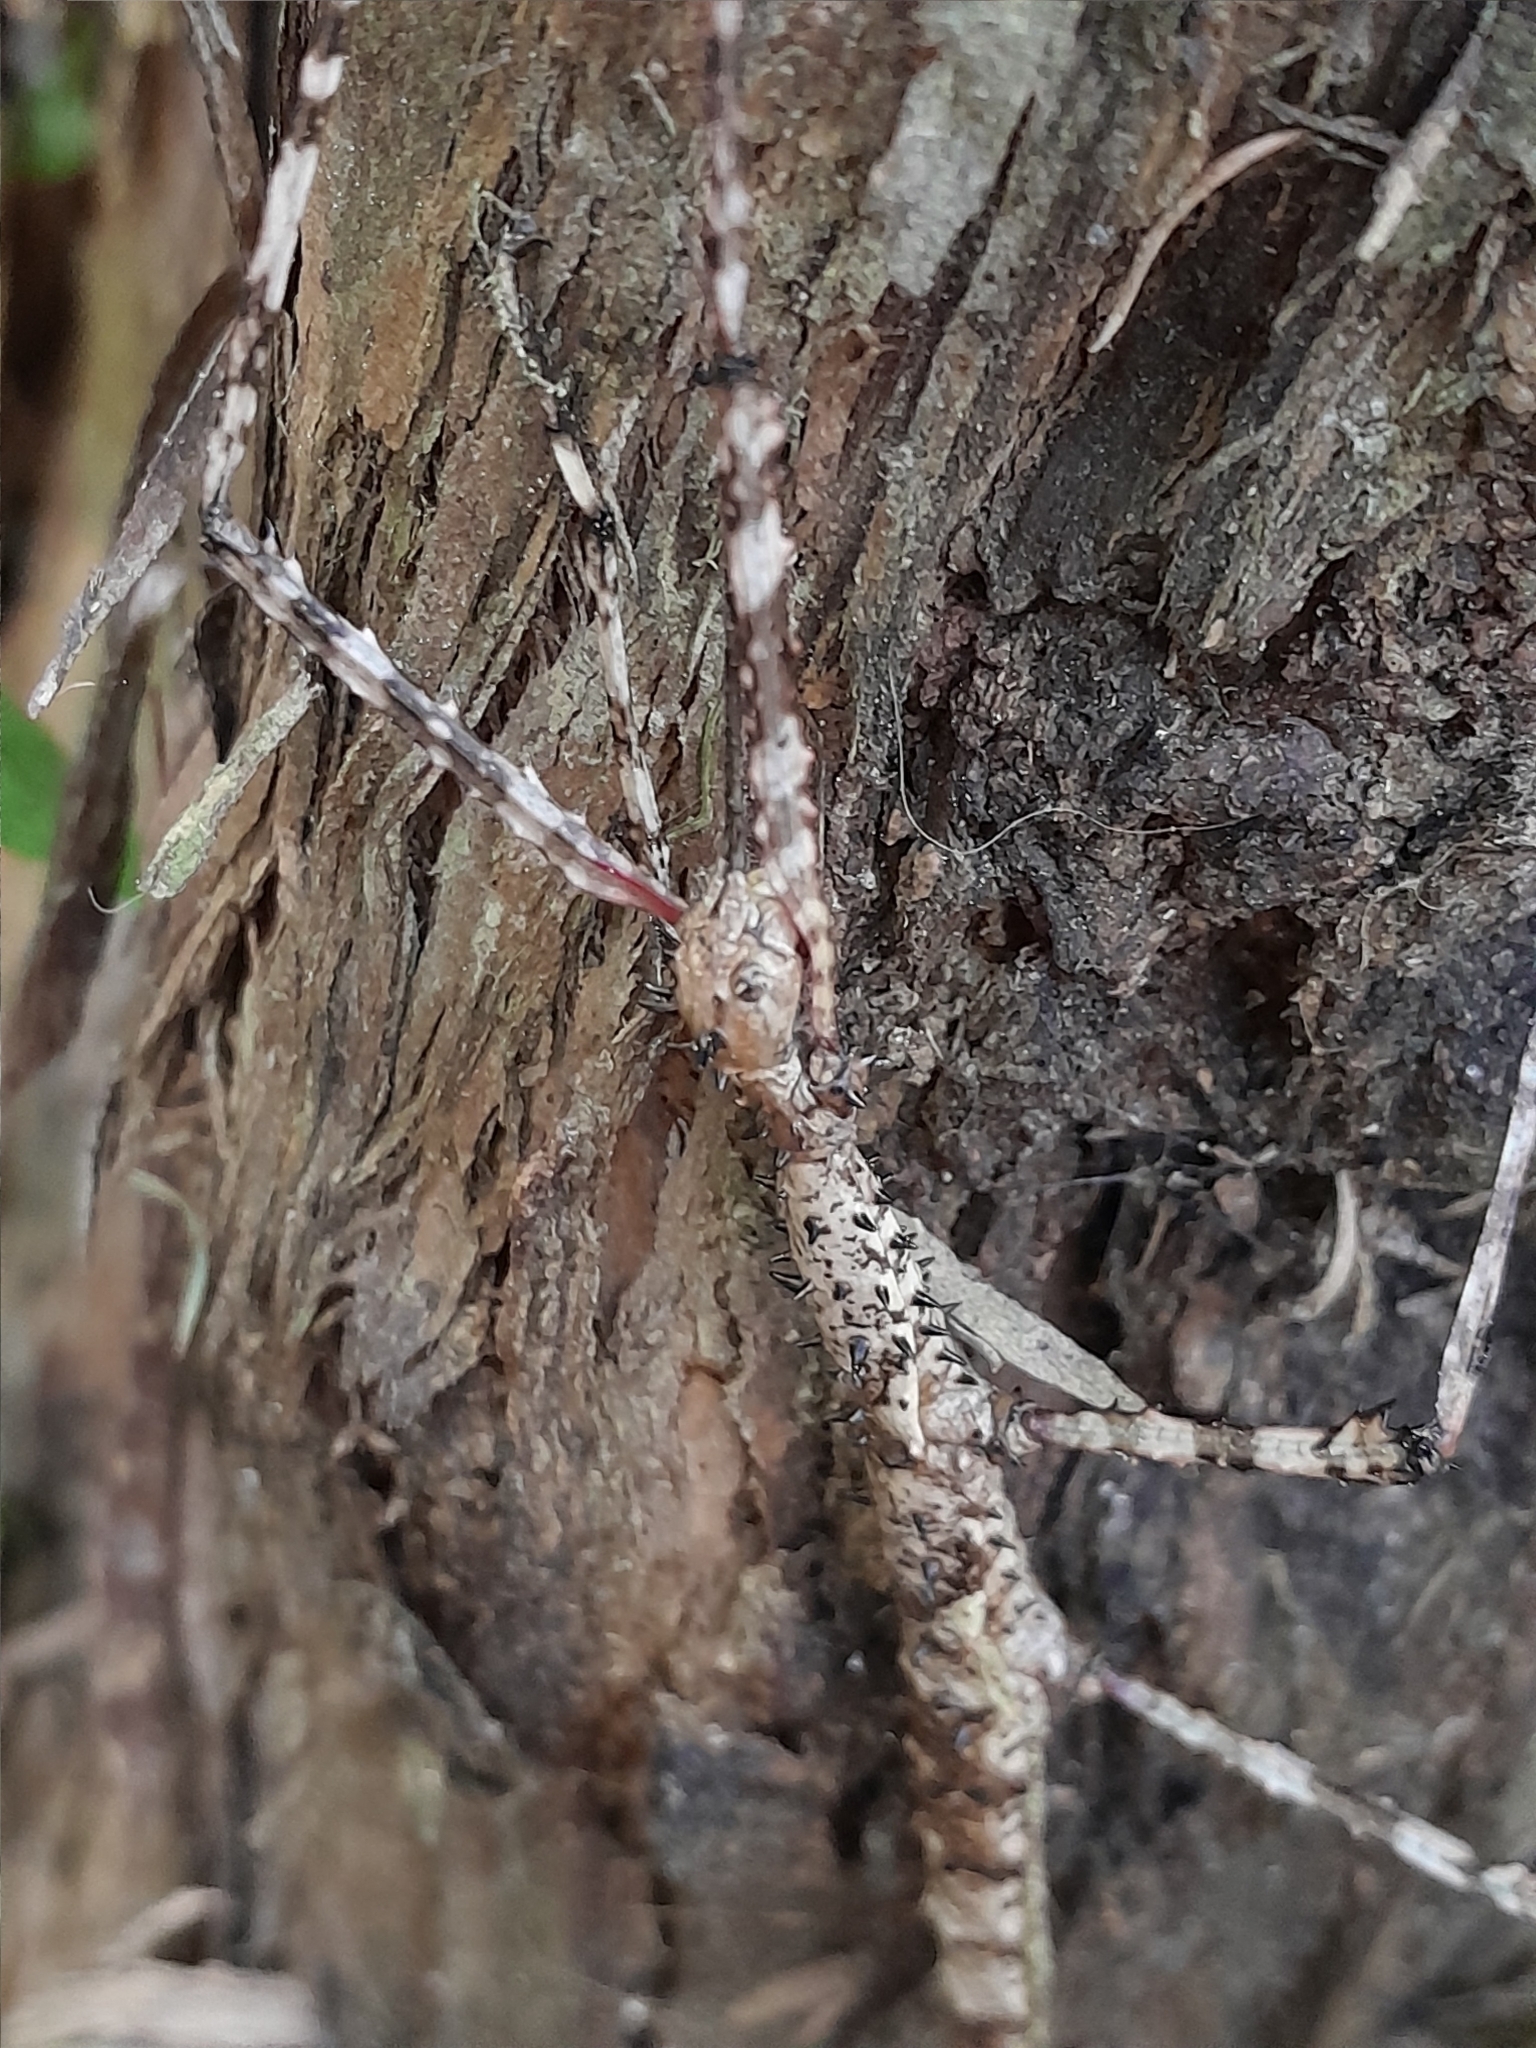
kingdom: Animalia
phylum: Arthropoda
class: Insecta
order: Phasmida
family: Phasmatidae
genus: Acanthoxyla
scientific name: Acanthoxyla prasina
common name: Black-spined stick insect
